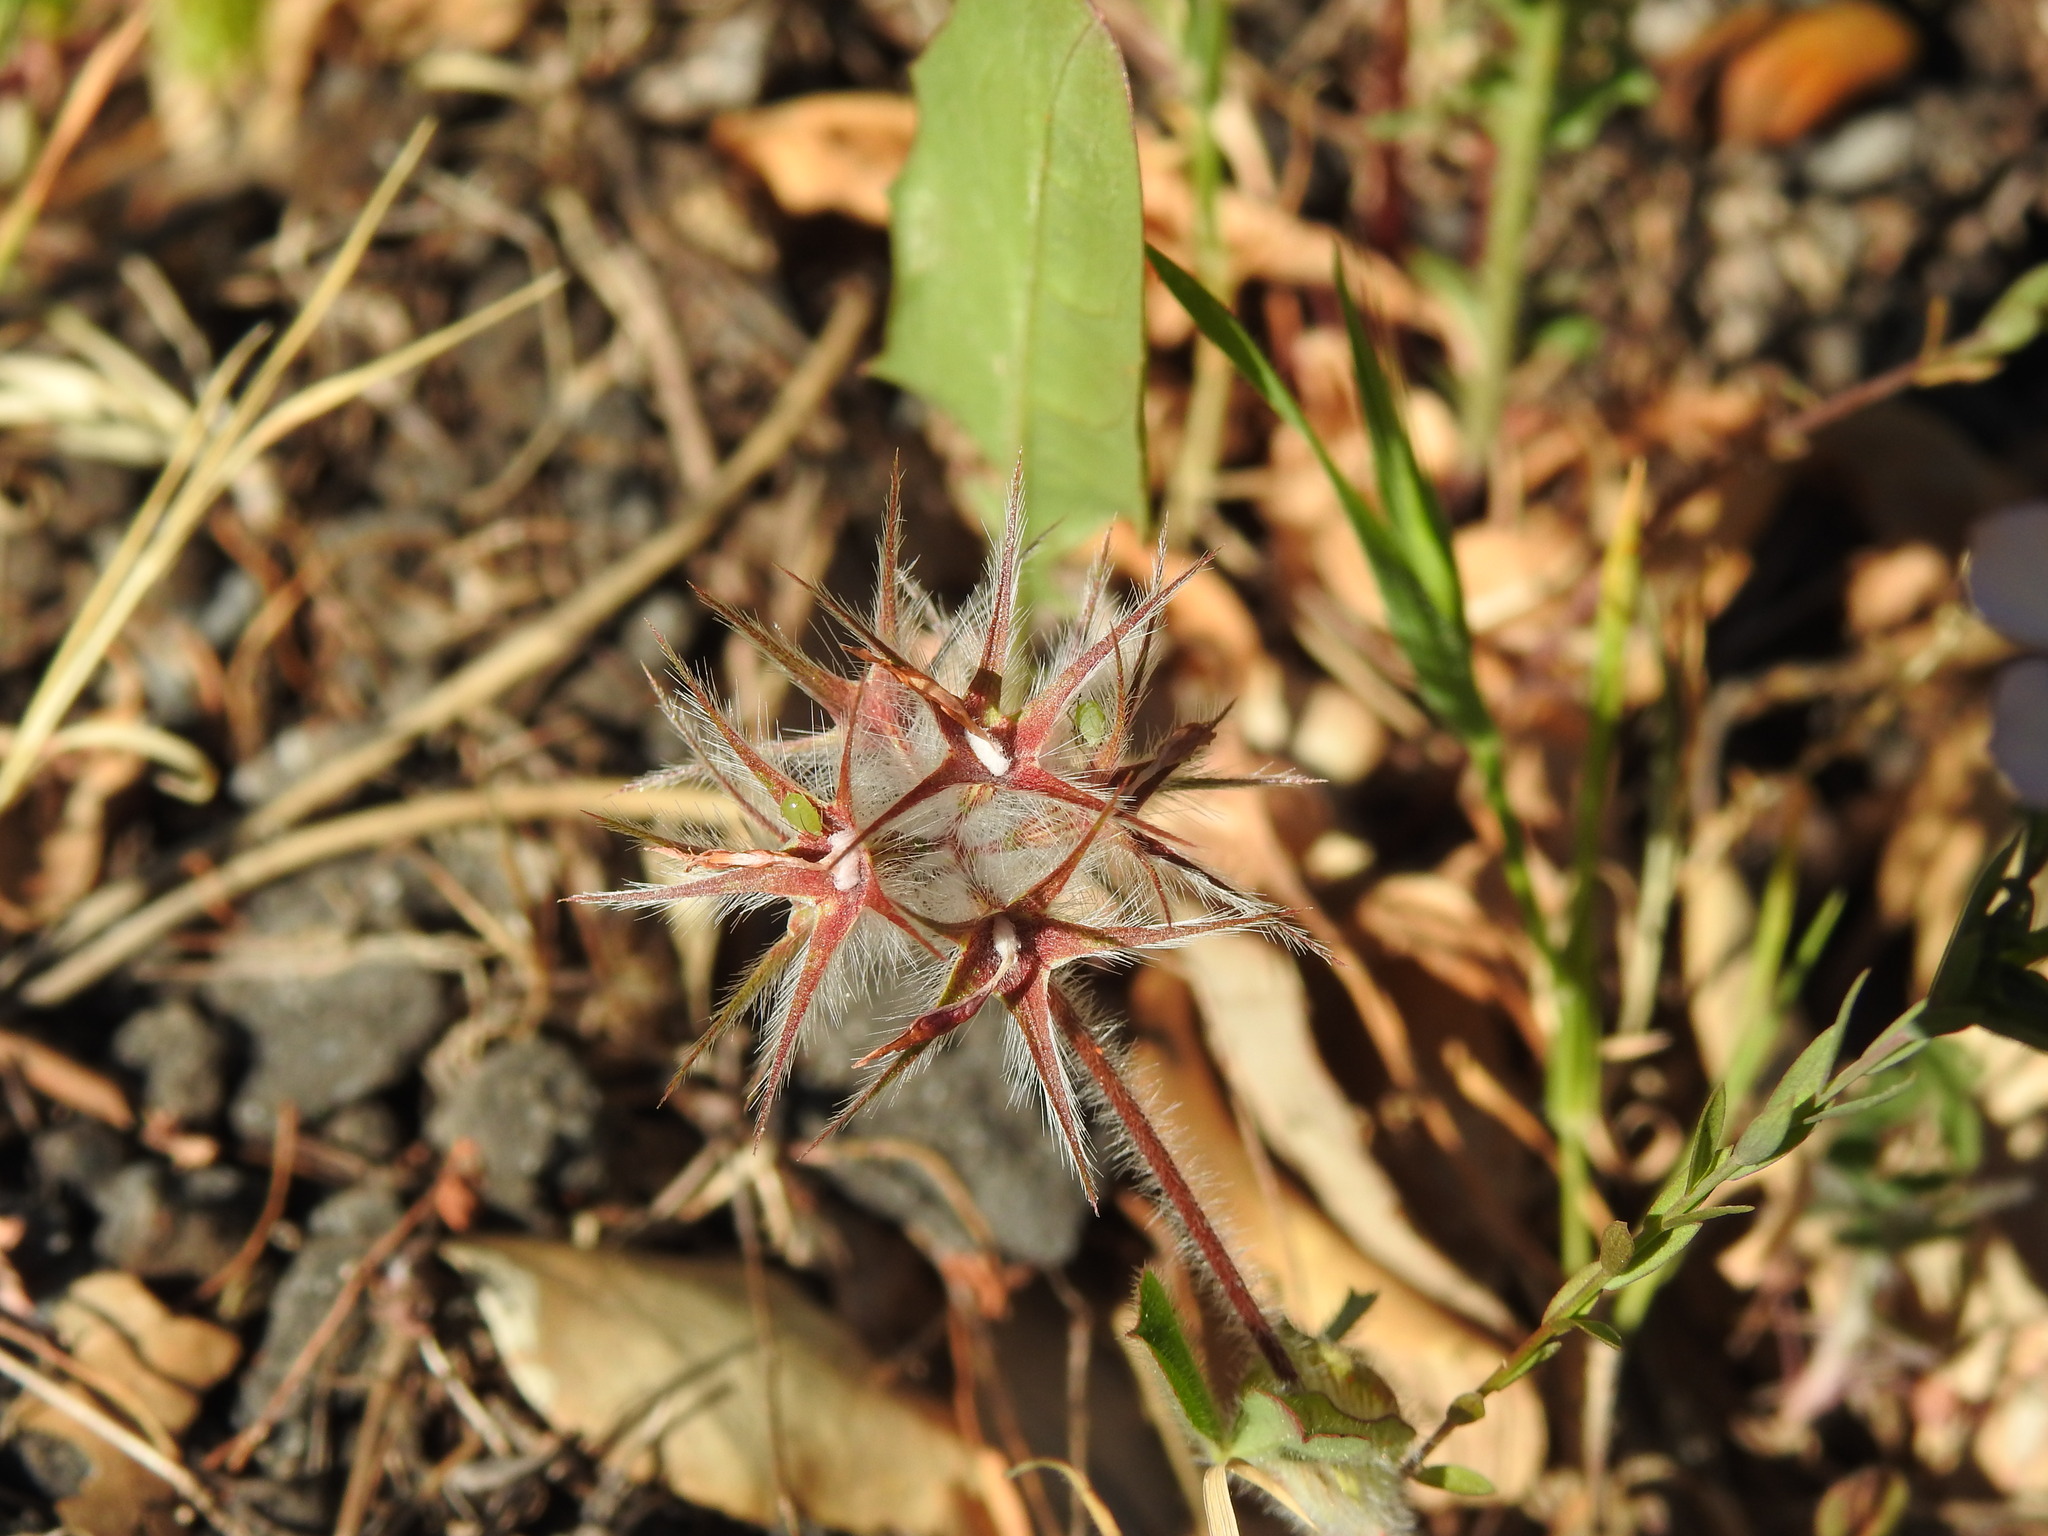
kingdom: Plantae
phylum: Tracheophyta
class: Magnoliopsida
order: Fabales
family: Fabaceae
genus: Trifolium
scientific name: Trifolium stellatum
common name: Starry clover
